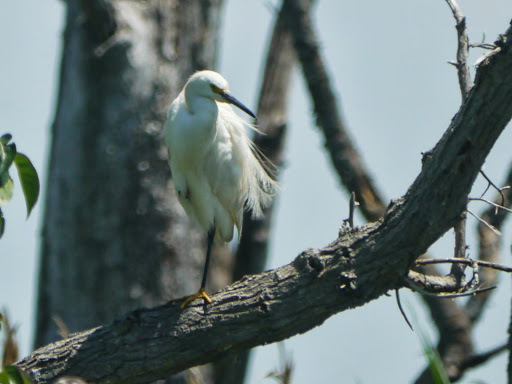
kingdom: Animalia
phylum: Chordata
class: Aves
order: Pelecaniformes
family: Ardeidae
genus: Egretta
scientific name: Egretta thula
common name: Snowy egret
